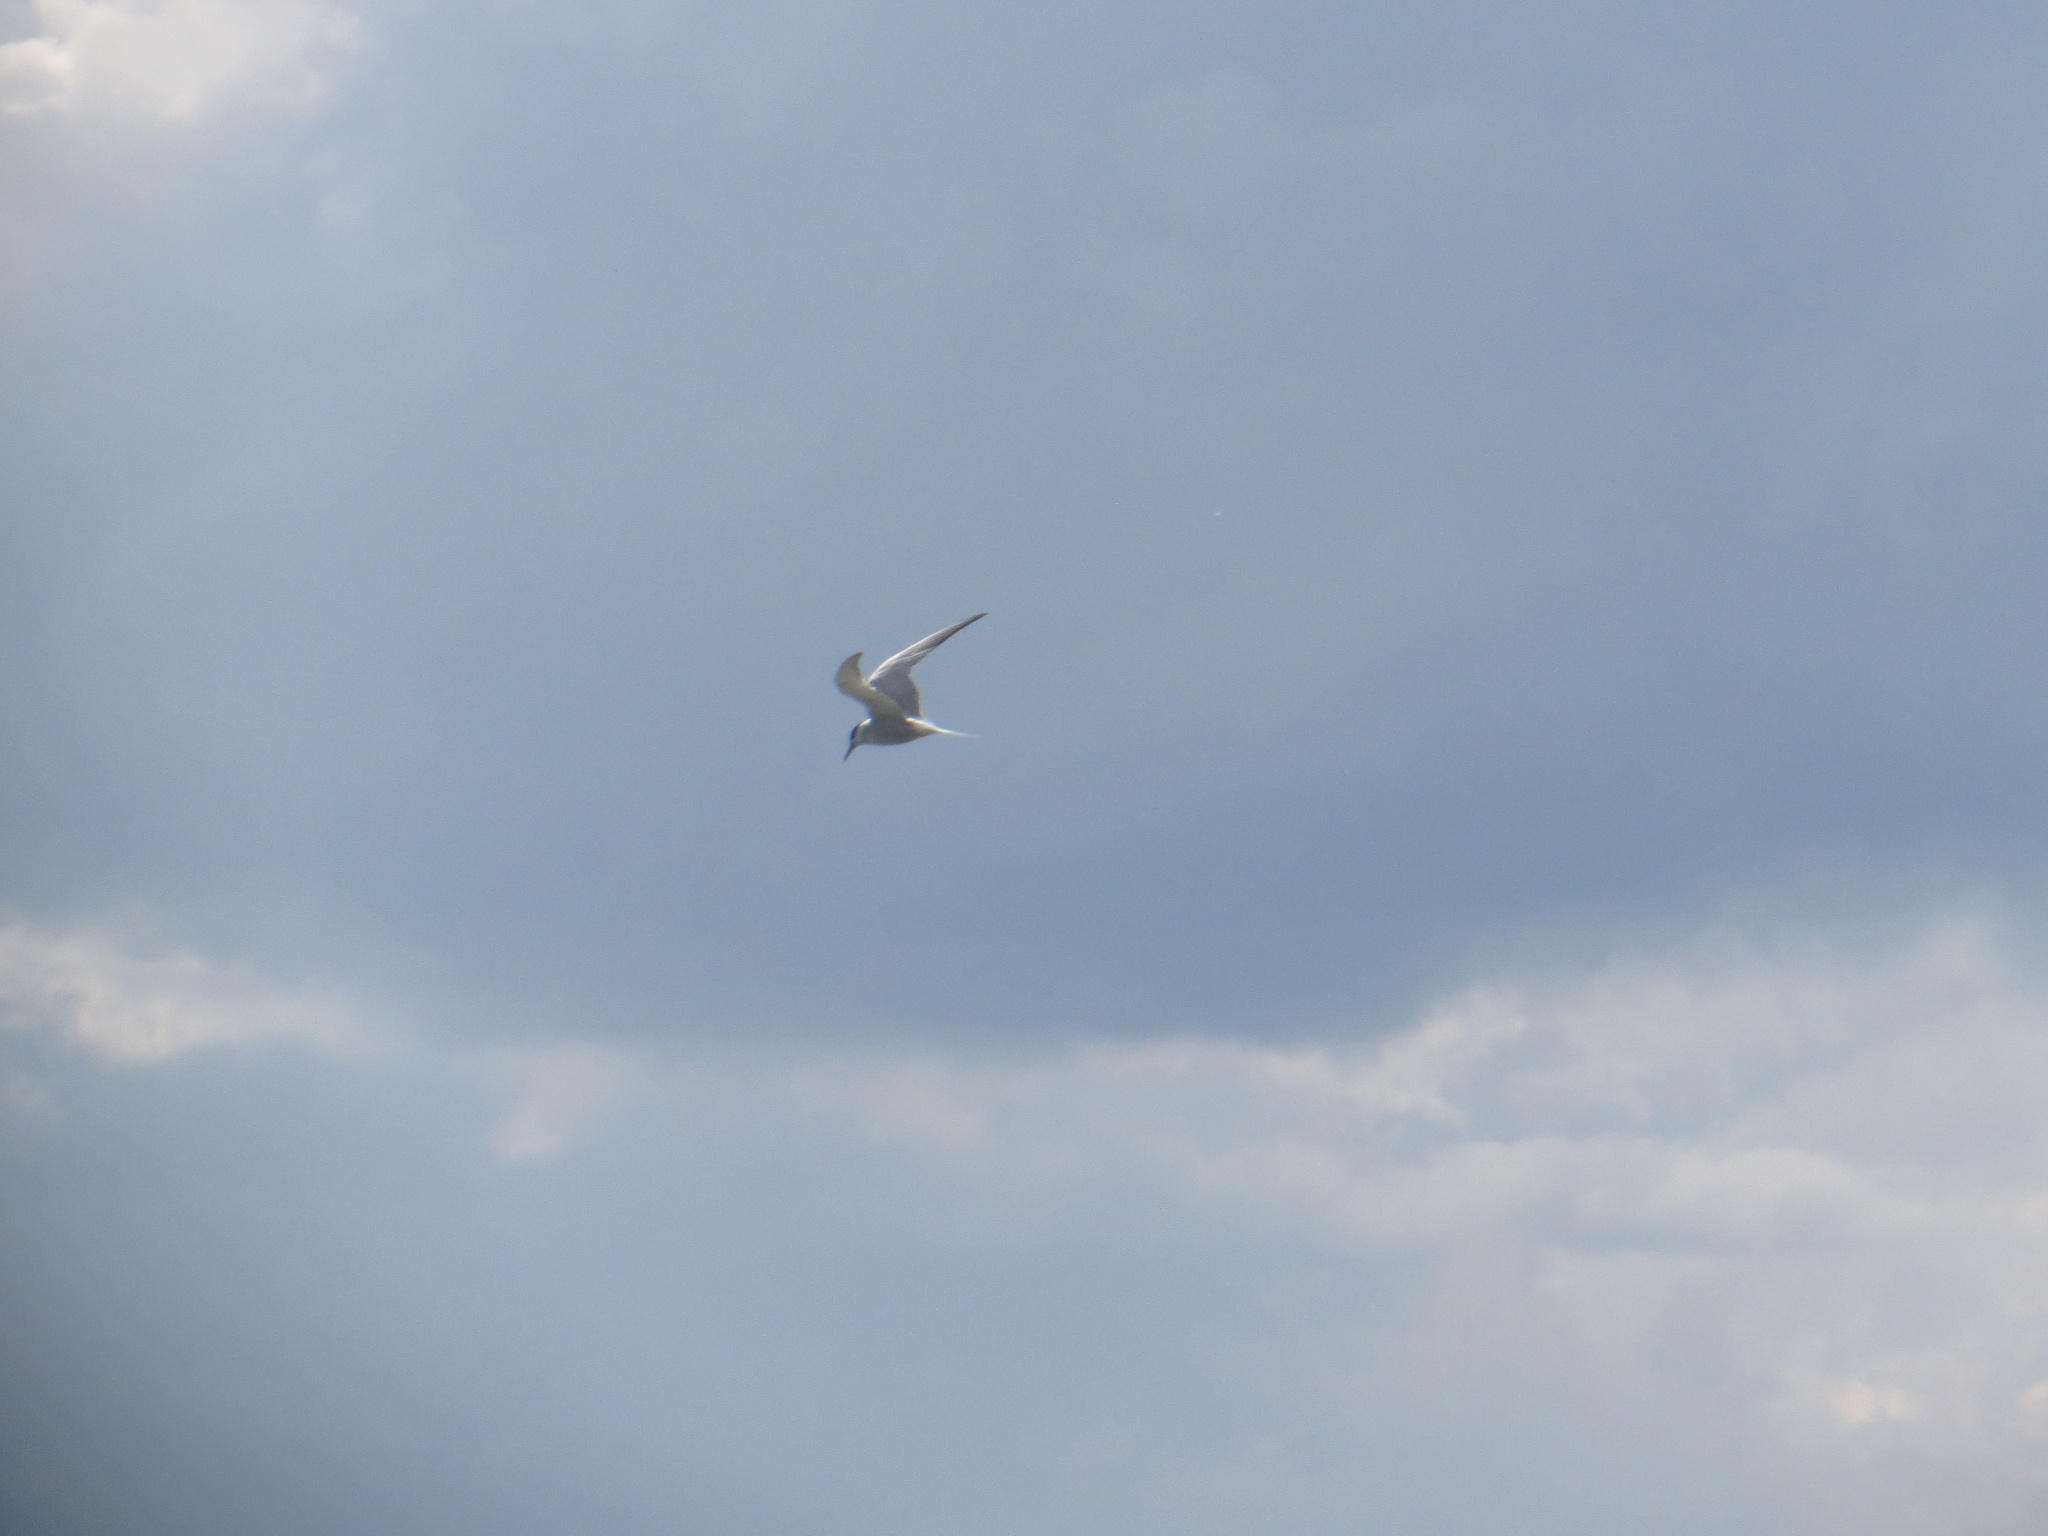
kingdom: Animalia
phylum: Chordata
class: Aves
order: Charadriiformes
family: Laridae
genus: Sterna
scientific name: Sterna hirundo
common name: Common tern
